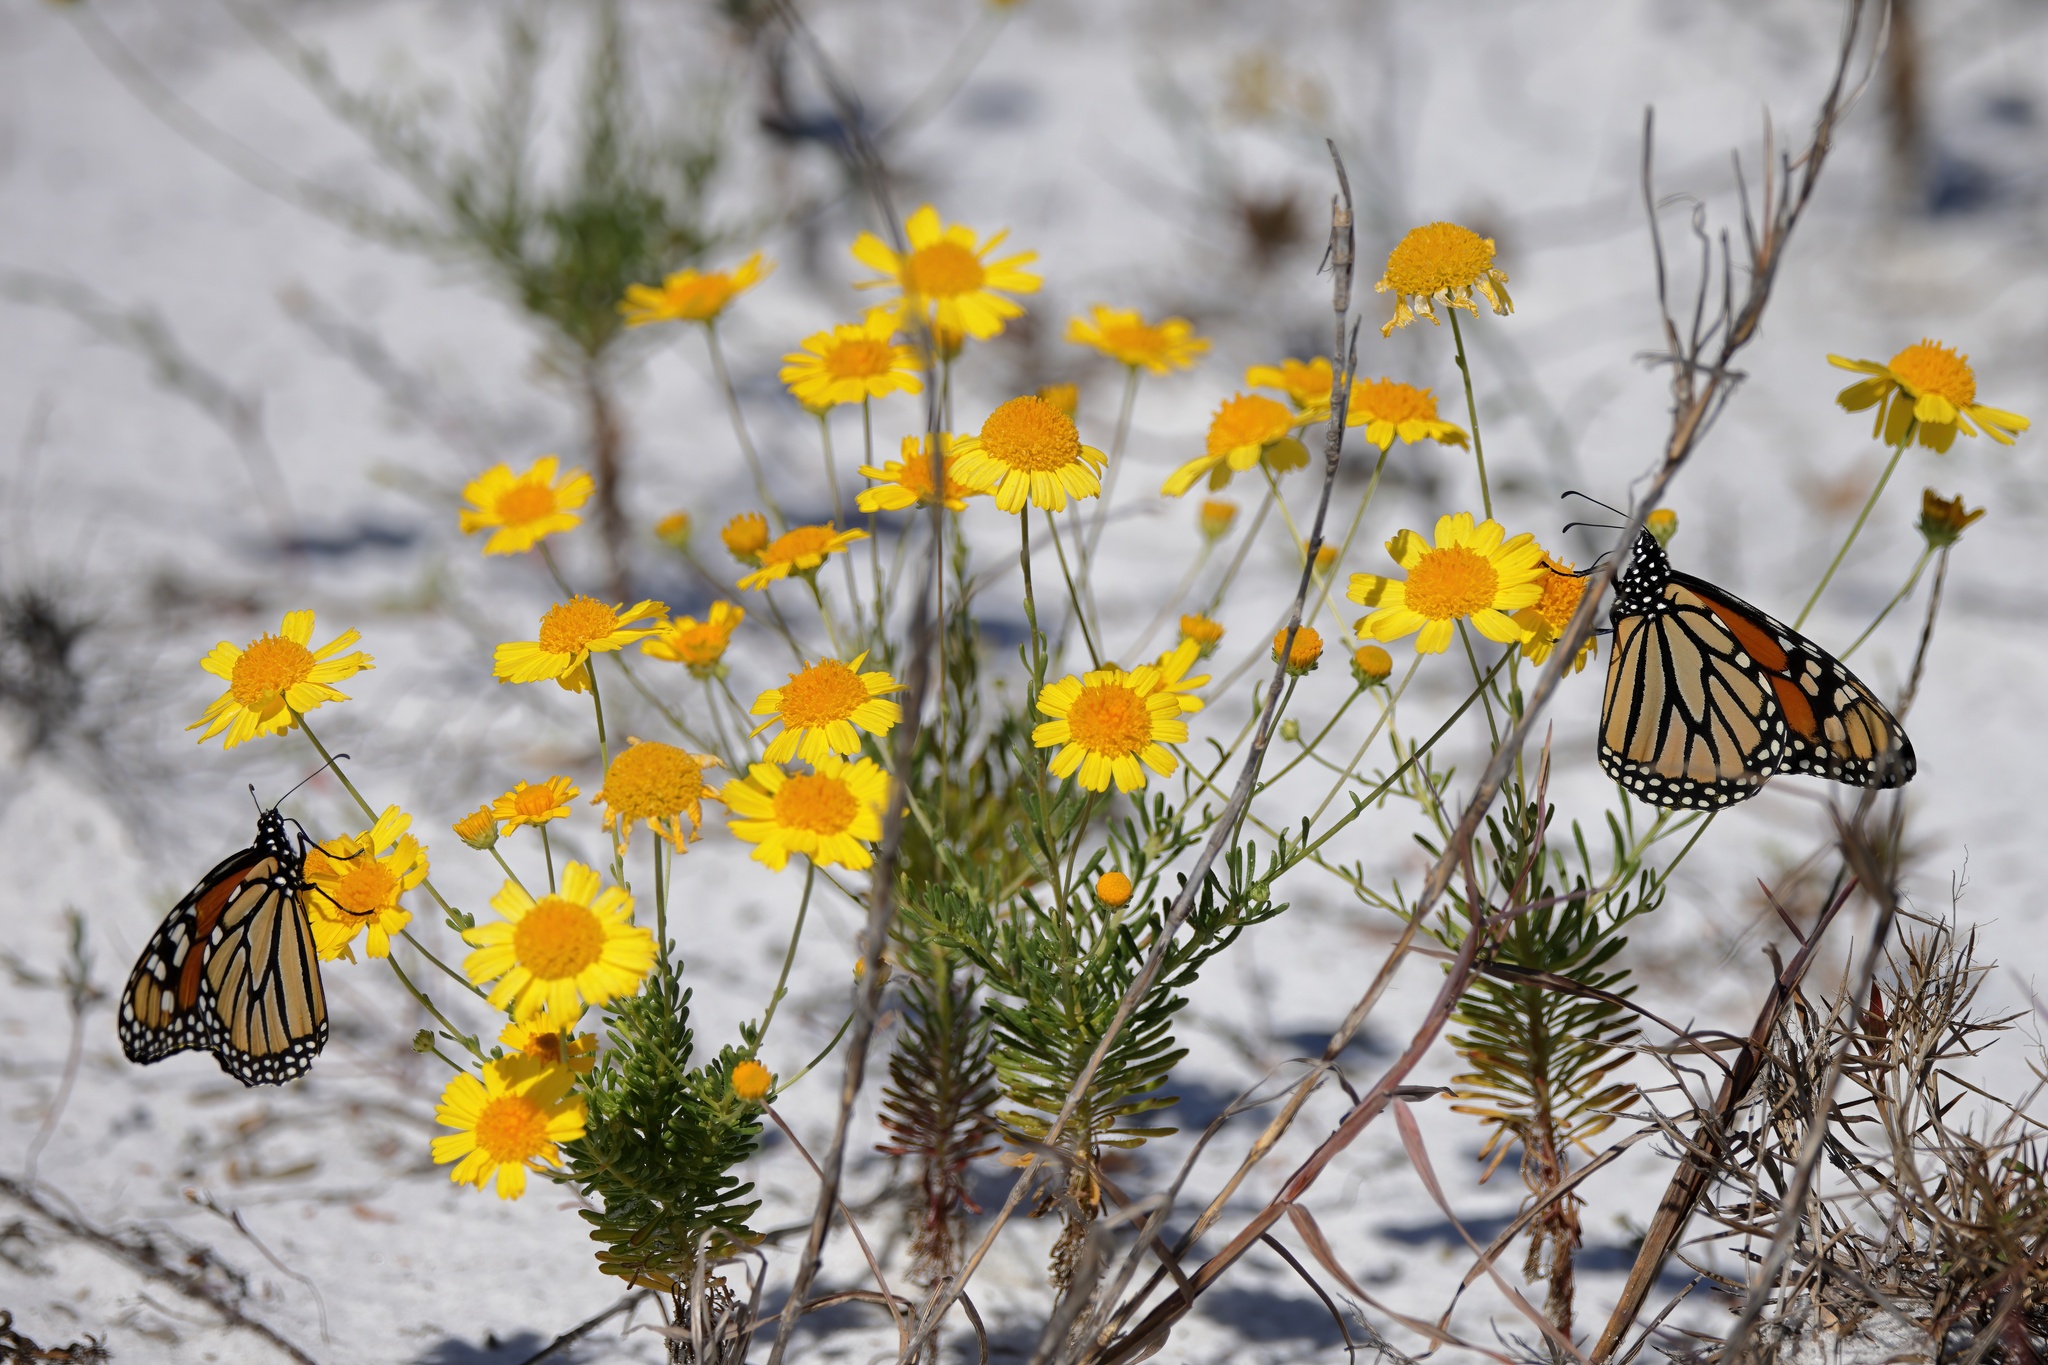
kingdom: Animalia
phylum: Arthropoda
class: Insecta
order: Lepidoptera
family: Nymphalidae
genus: Danaus
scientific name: Danaus plexippus
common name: Monarch
